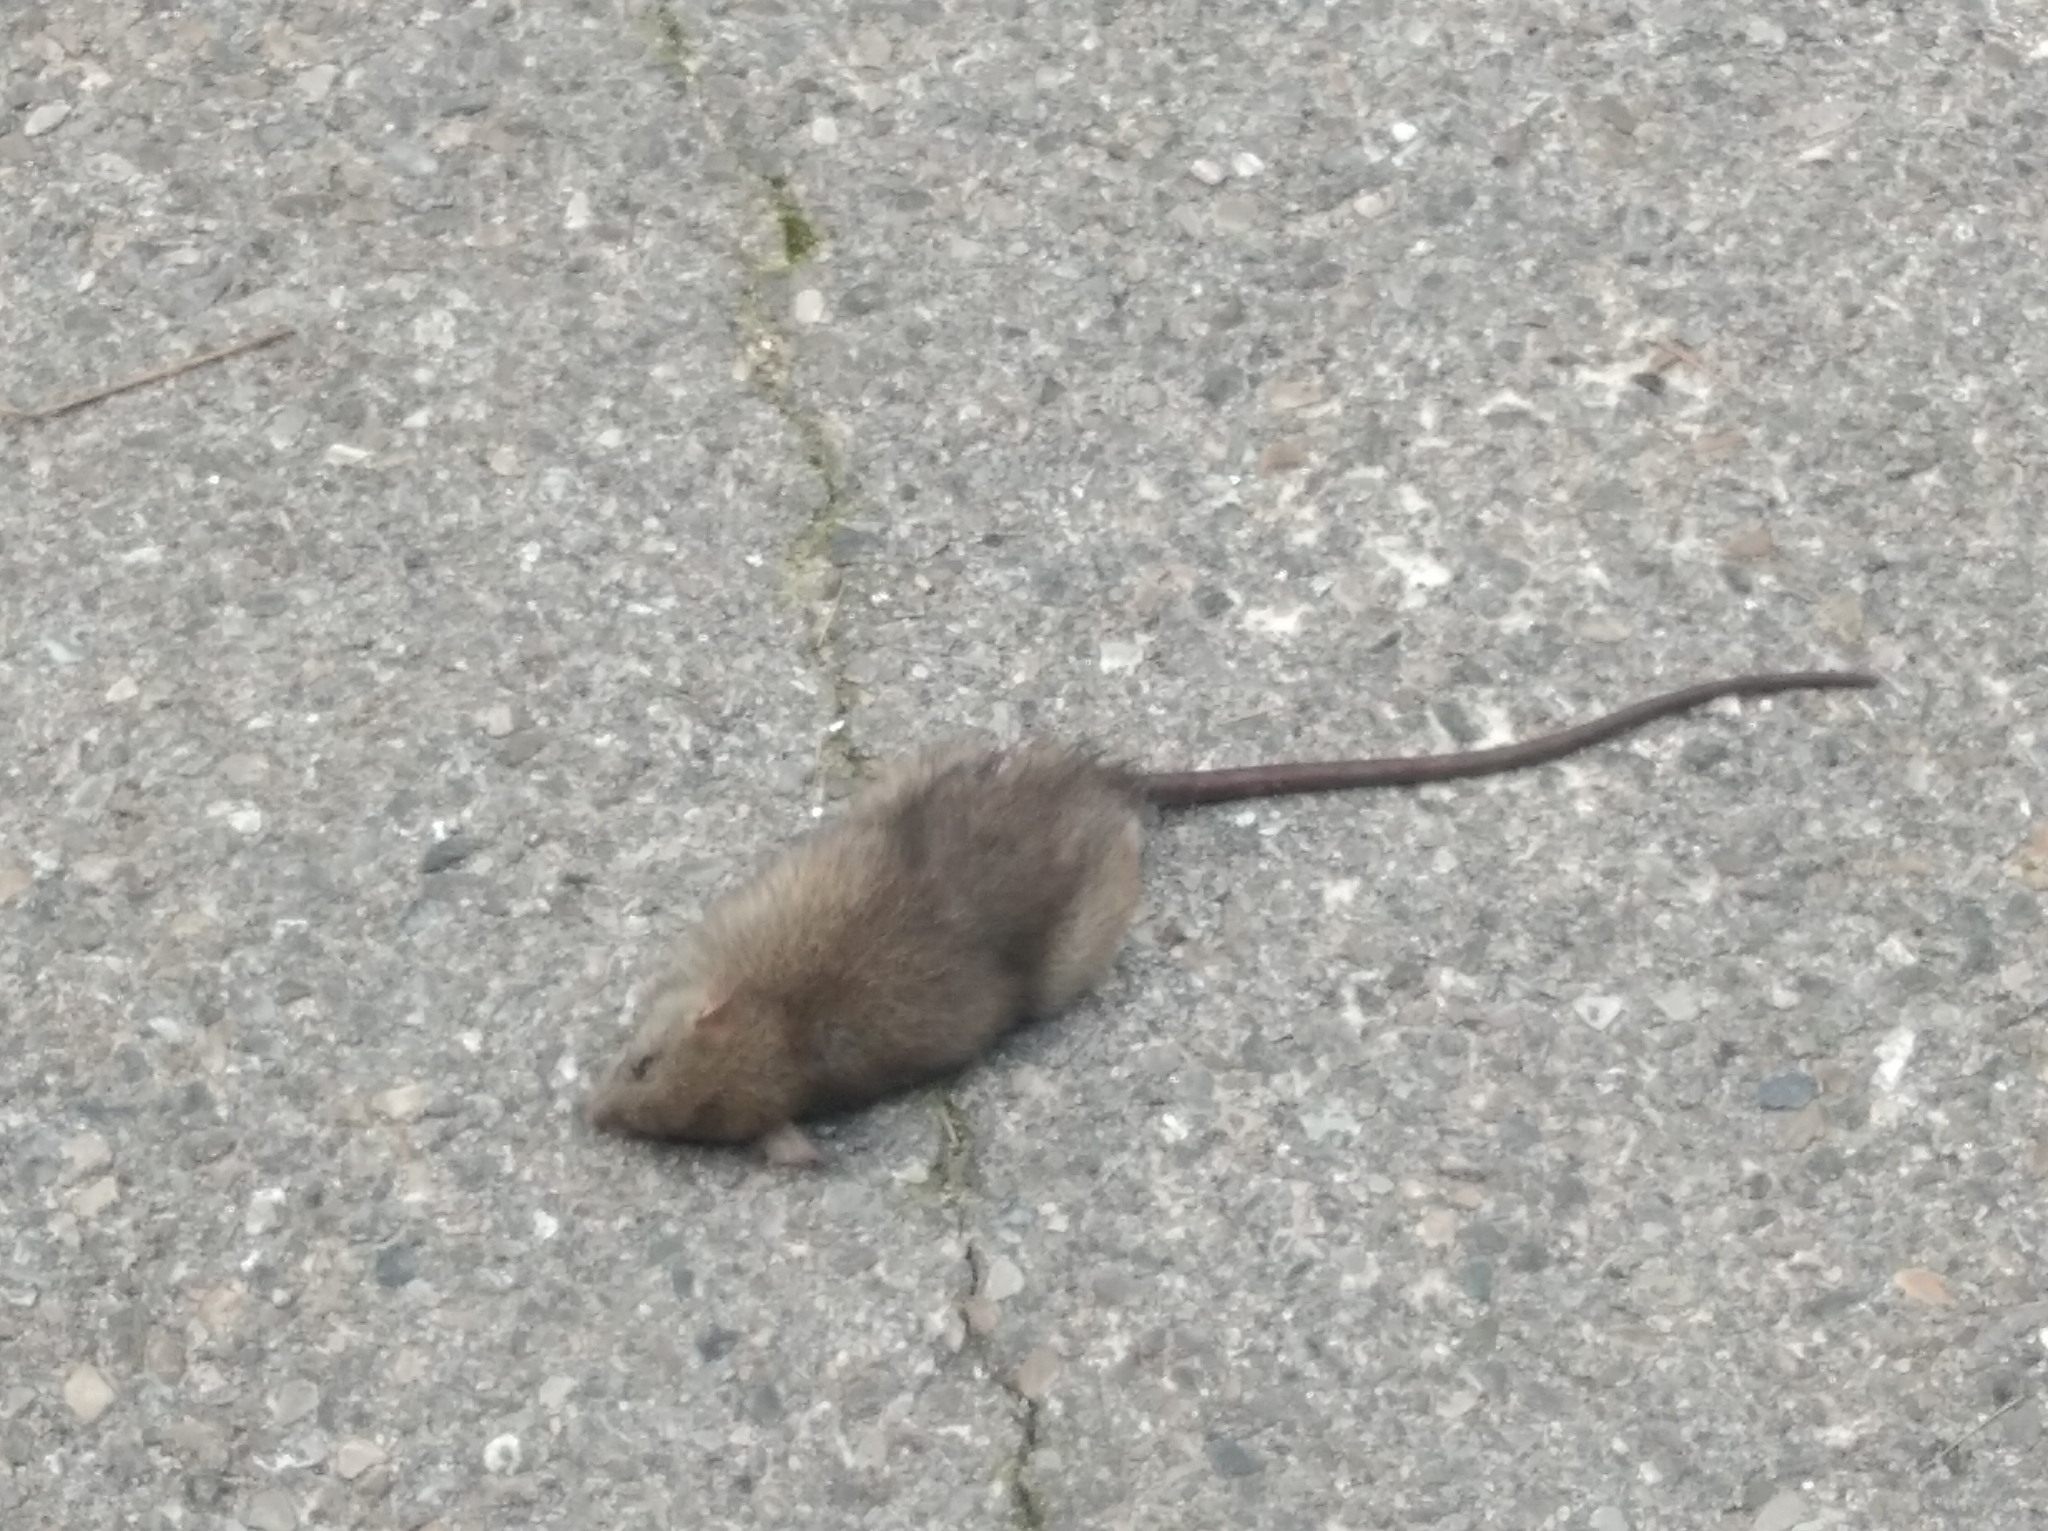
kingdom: Animalia
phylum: Chordata
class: Mammalia
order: Rodentia
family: Muridae
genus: Rattus
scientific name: Rattus norvegicus
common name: Brown rat
